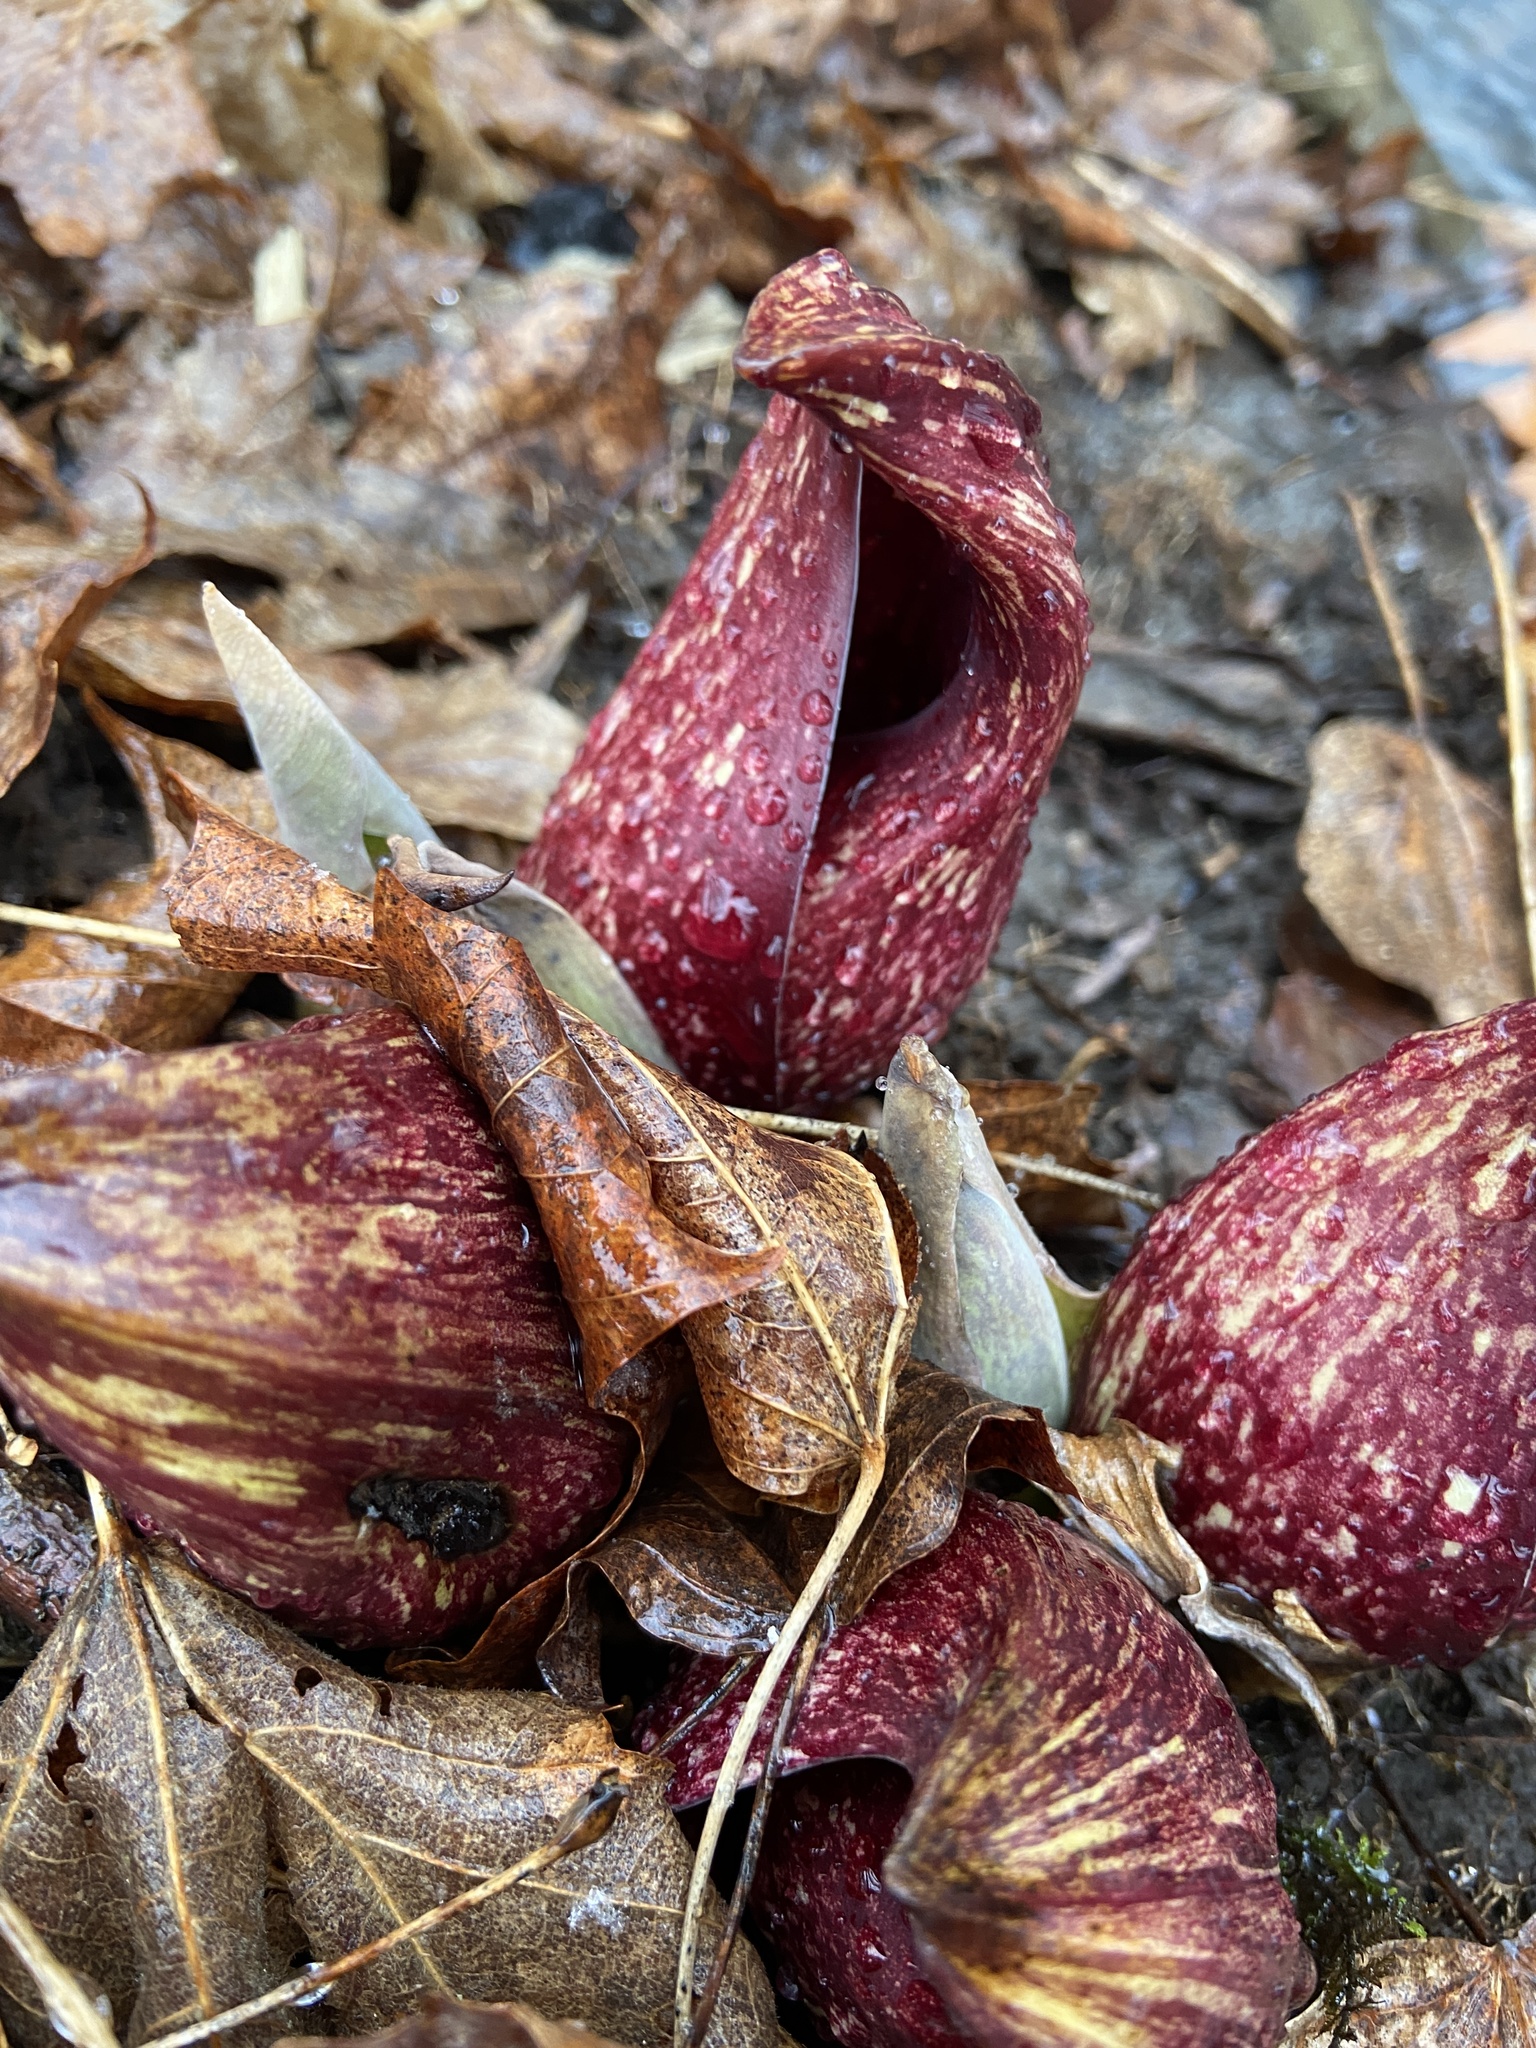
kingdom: Plantae
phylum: Tracheophyta
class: Liliopsida
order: Alismatales
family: Araceae
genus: Symplocarpus
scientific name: Symplocarpus foetidus
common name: Eastern skunk cabbage
